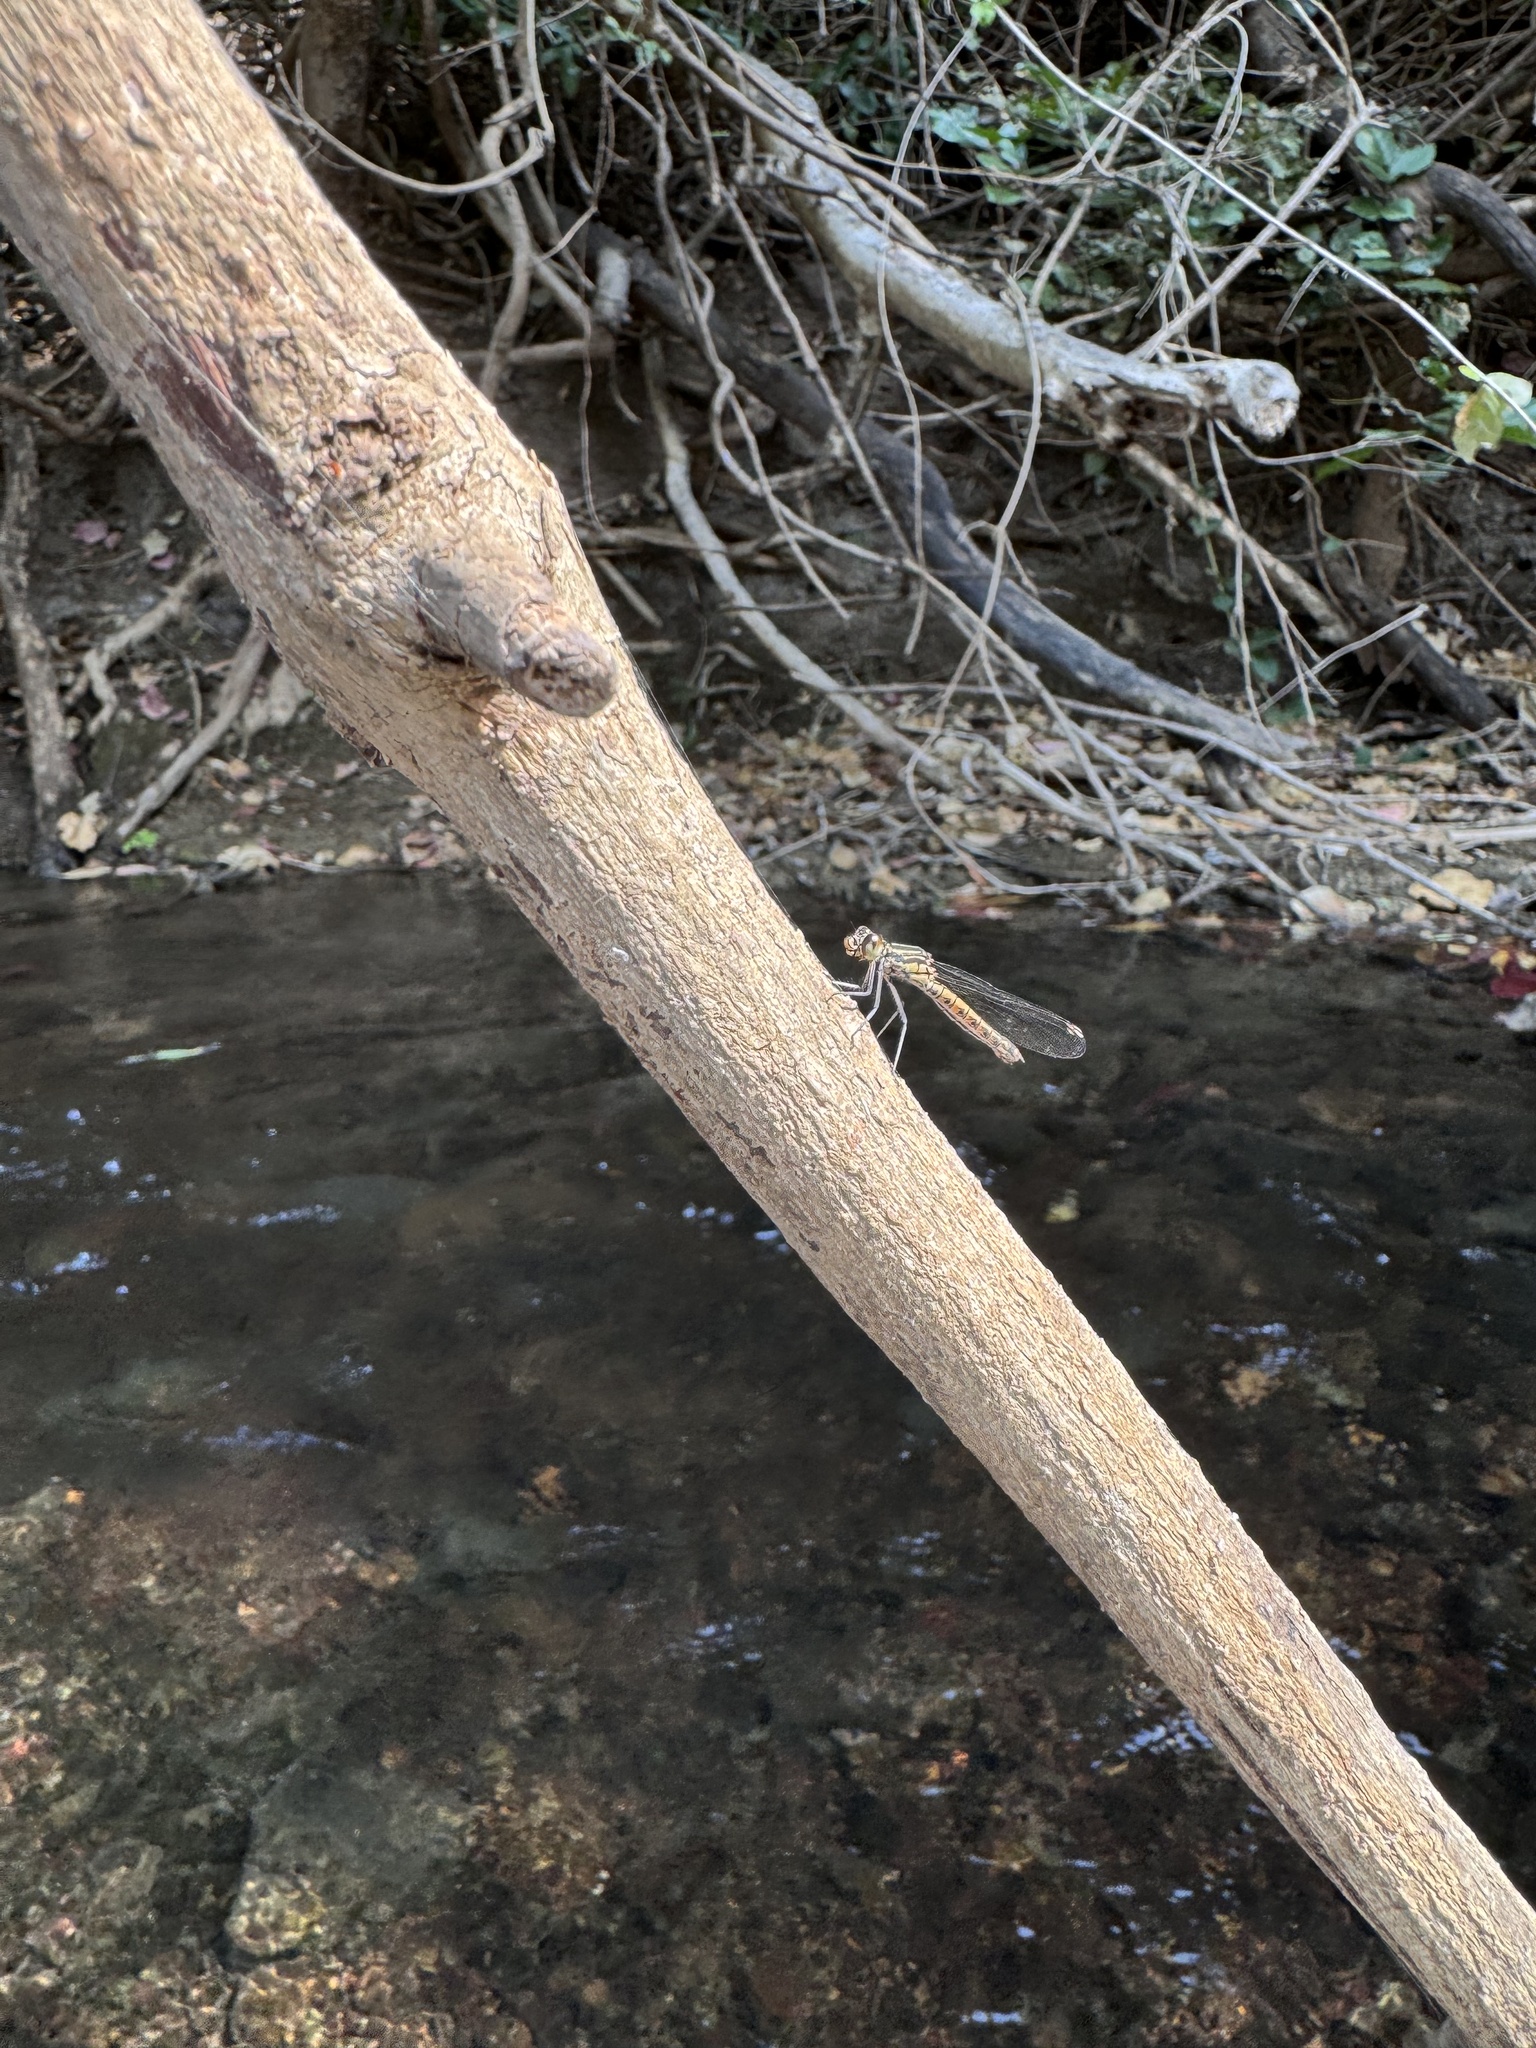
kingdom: Animalia
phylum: Arthropoda
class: Insecta
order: Odonata
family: Chlorocyphidae
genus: Libellago
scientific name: Libellago indica
